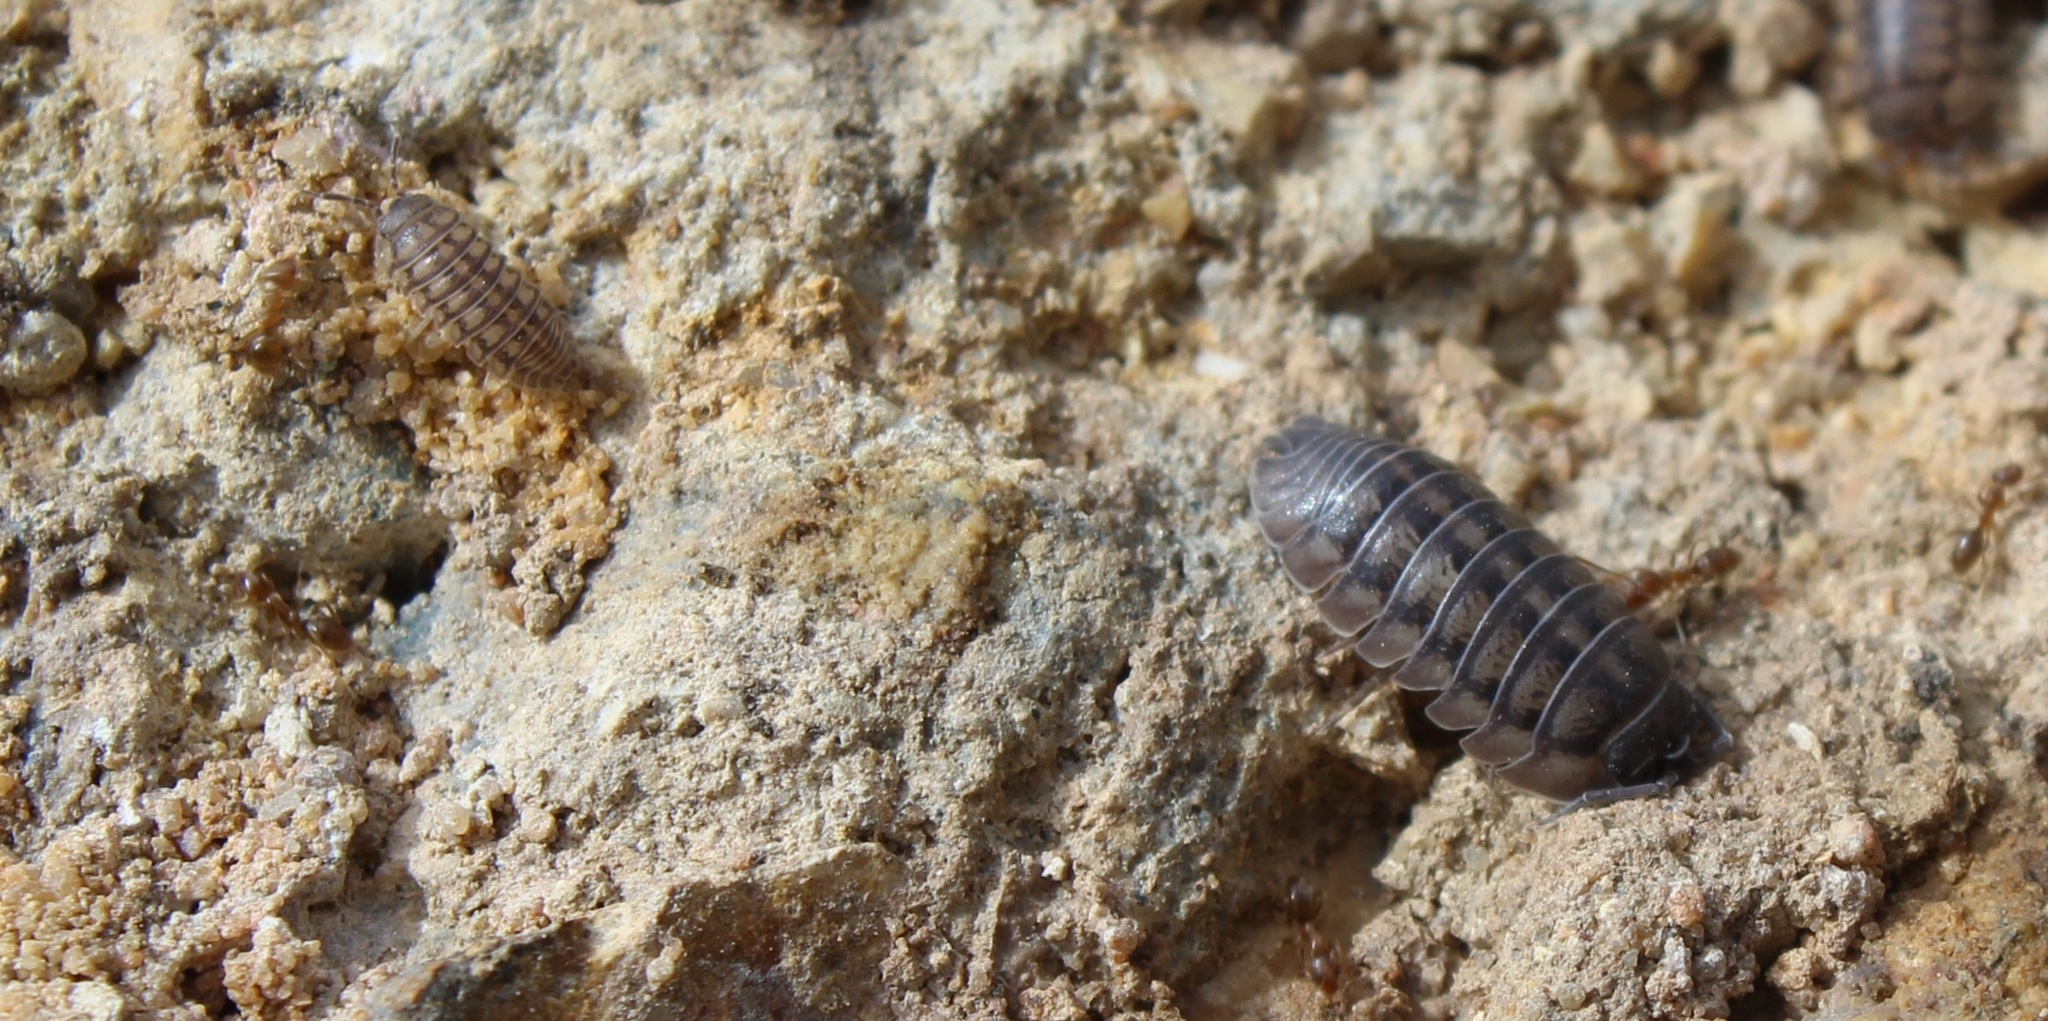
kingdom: Animalia
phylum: Arthropoda
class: Malacostraca
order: Isopoda
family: Armadillidiidae
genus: Armadillidium
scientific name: Armadillidium nasatum
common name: Isopod
